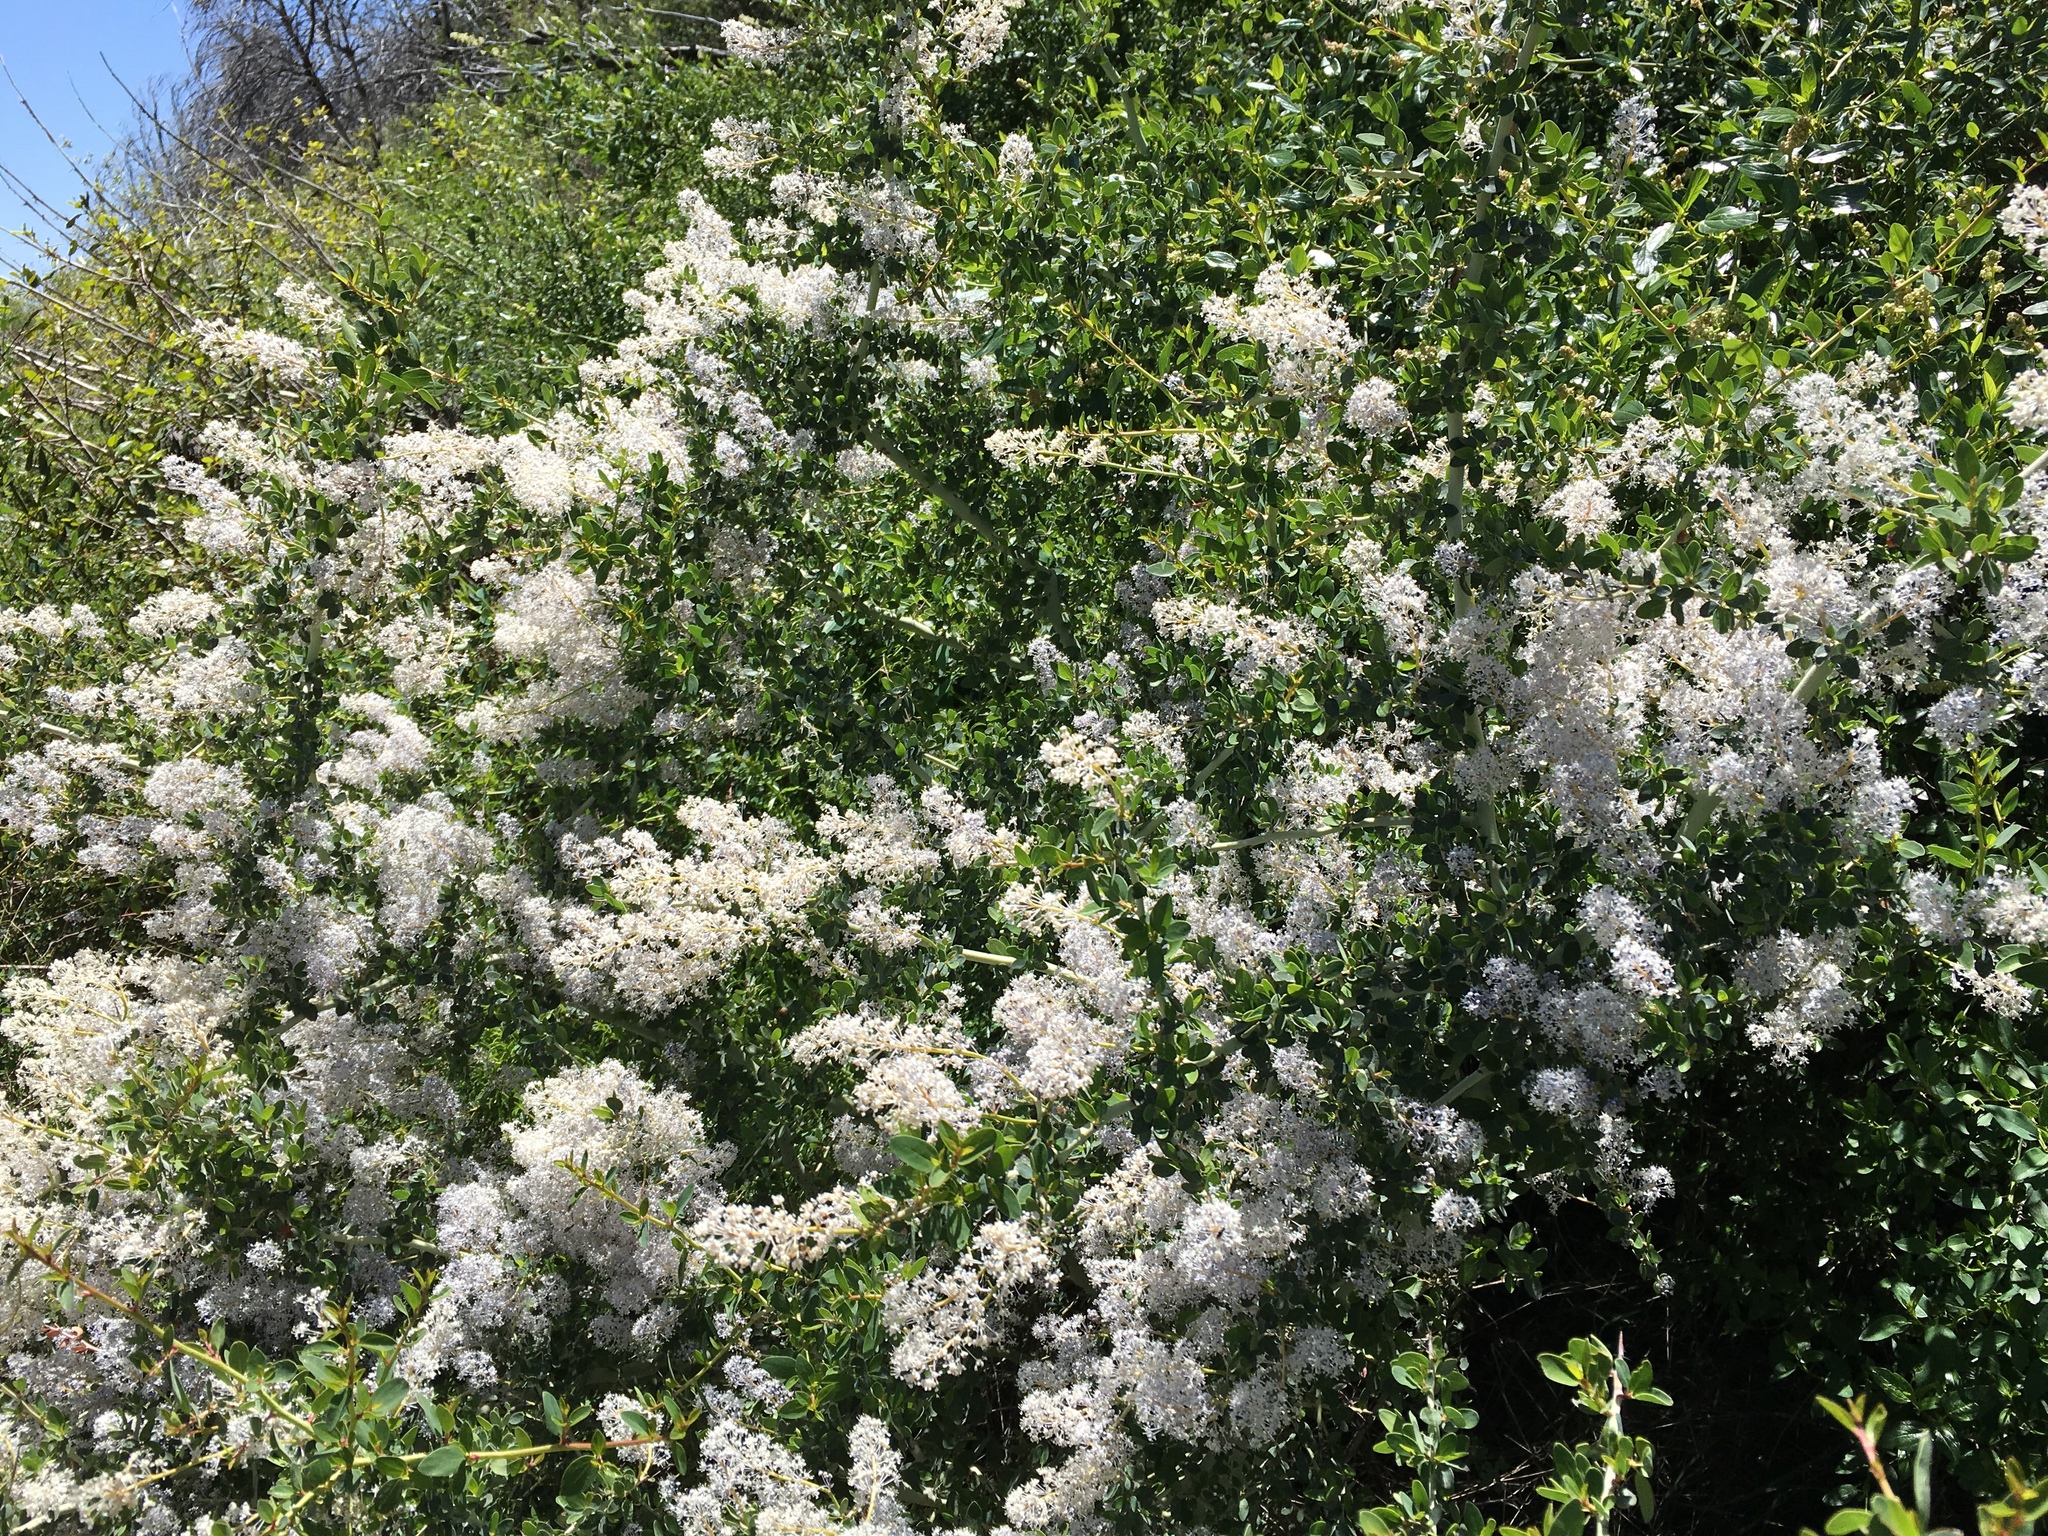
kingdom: Plantae
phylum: Tracheophyta
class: Magnoliopsida
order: Rosales
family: Rhamnaceae
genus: Ceanothus
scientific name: Ceanothus leucodermis
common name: Chaparral whitethorn
